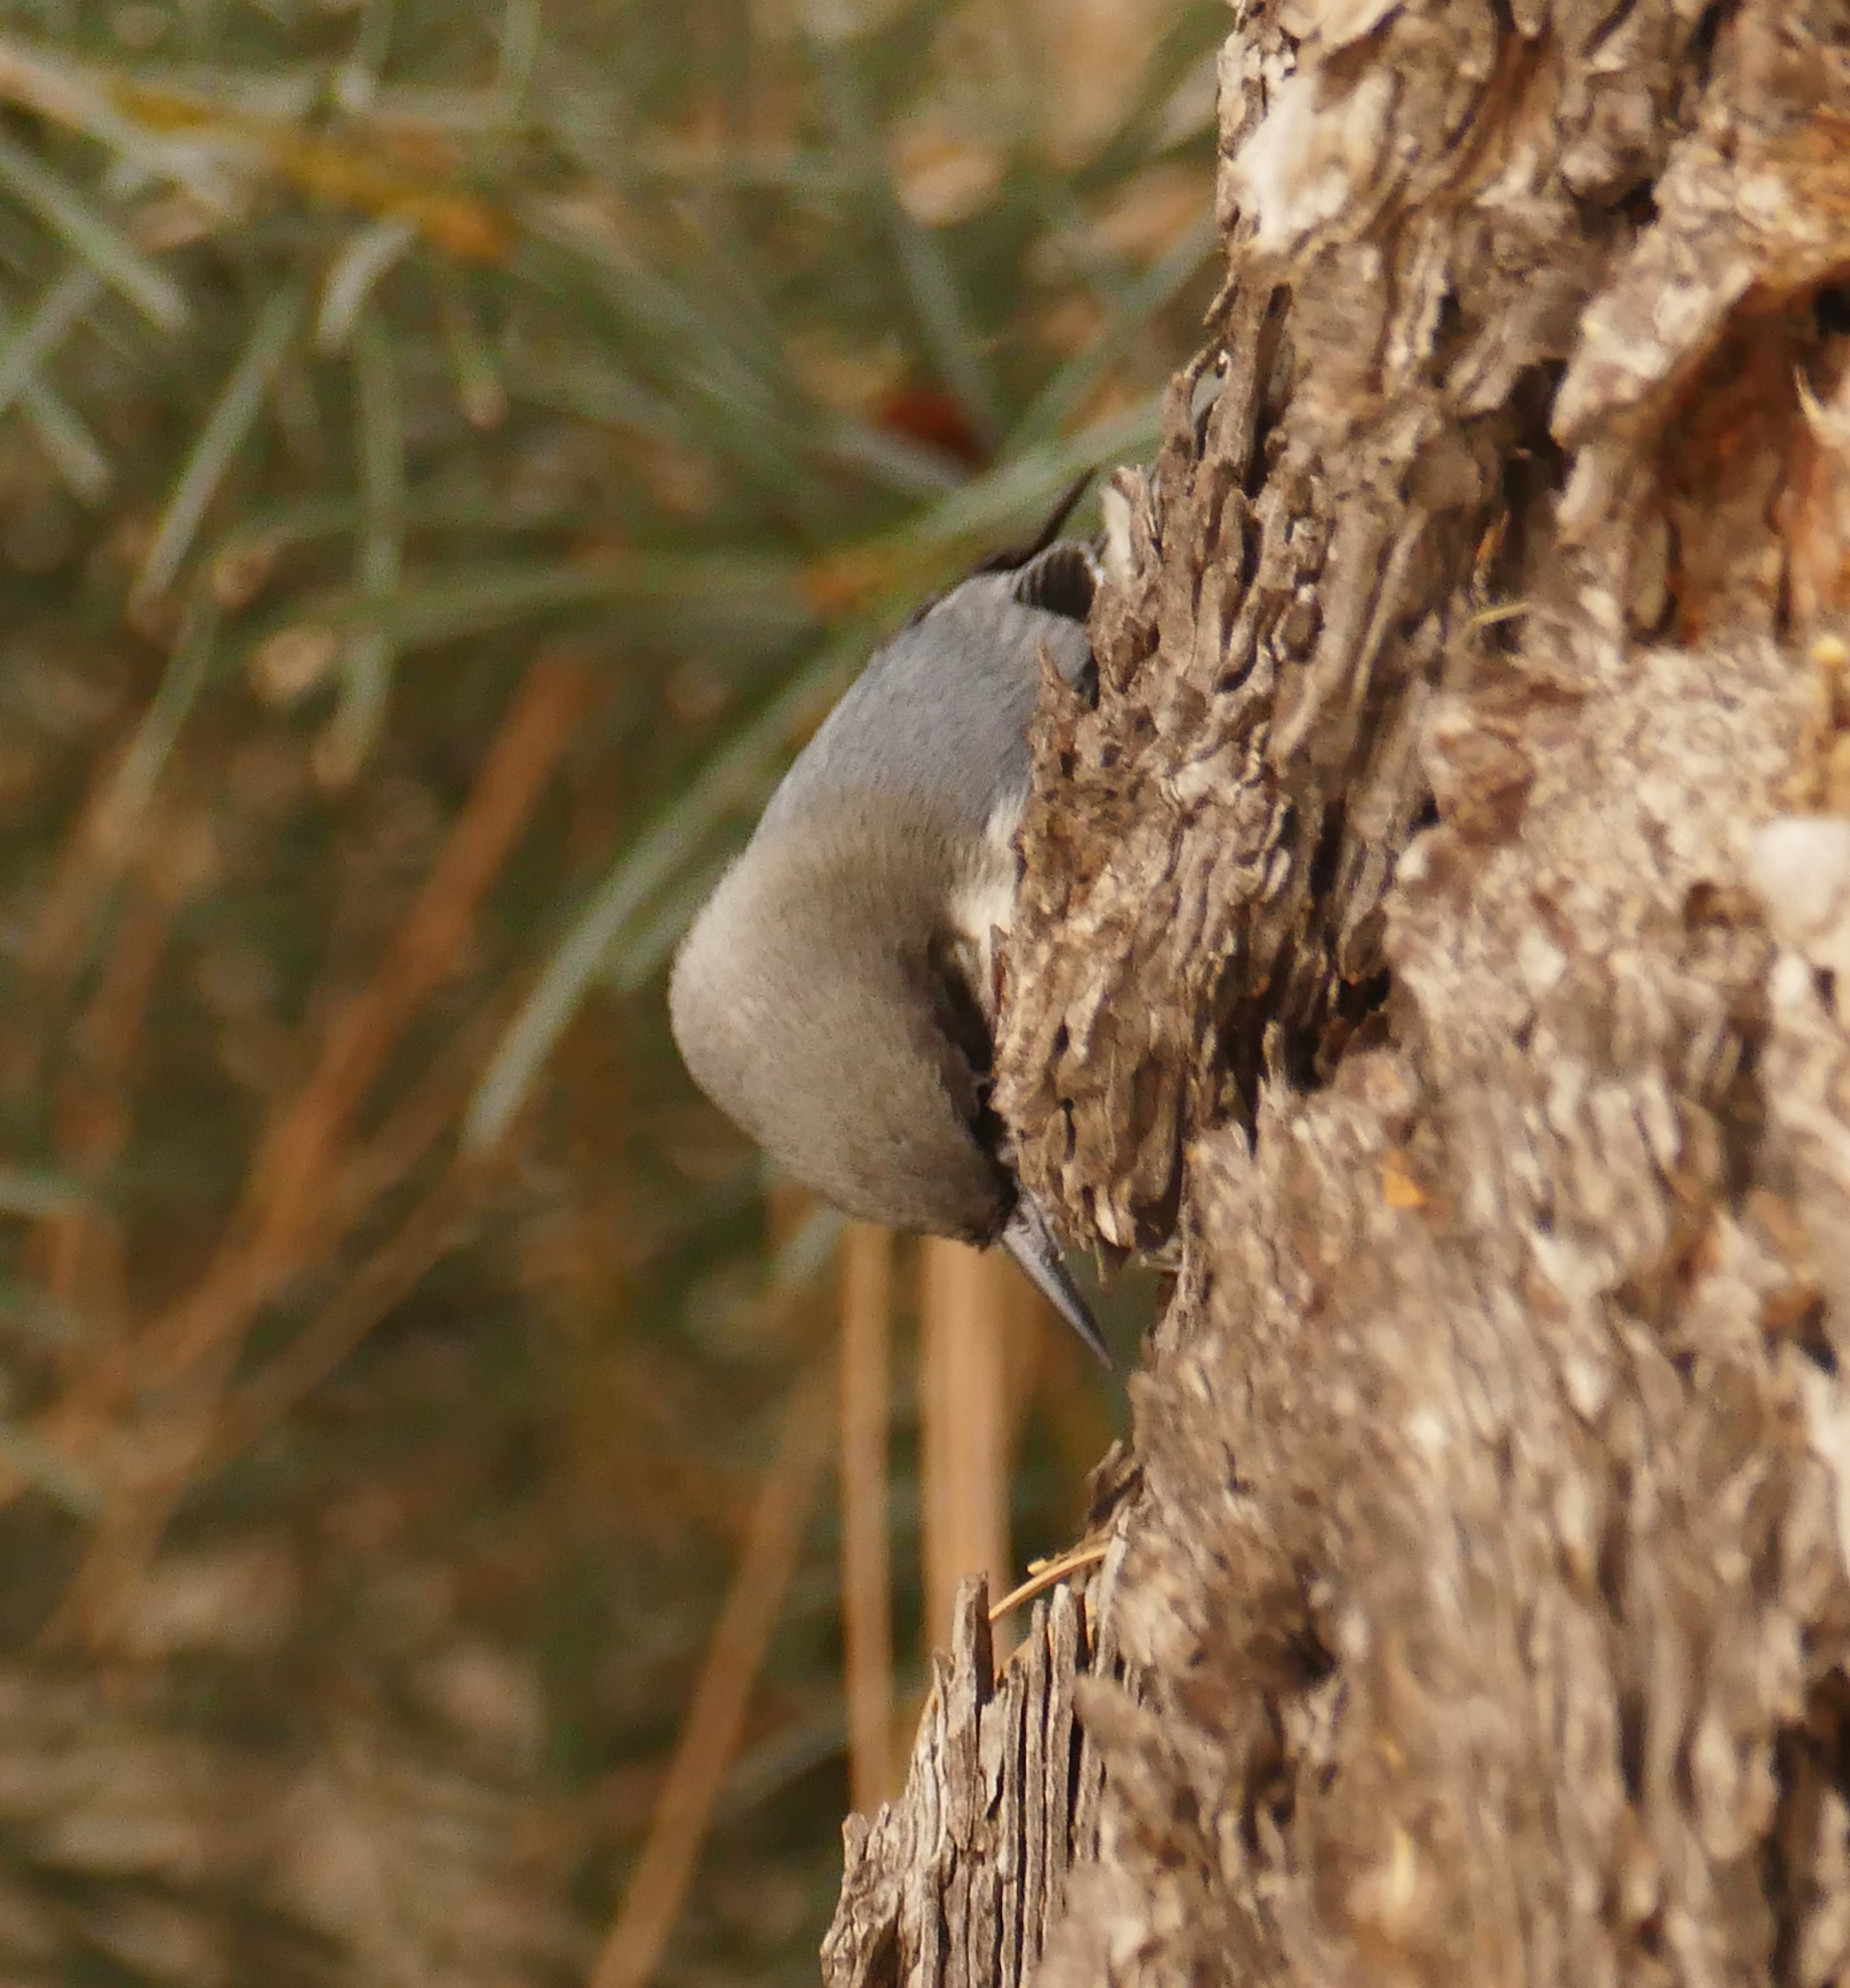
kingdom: Animalia
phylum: Chordata
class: Aves
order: Passeriformes
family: Sittidae
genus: Sitta
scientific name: Sitta pygmaea
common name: Pygmy nuthatch
